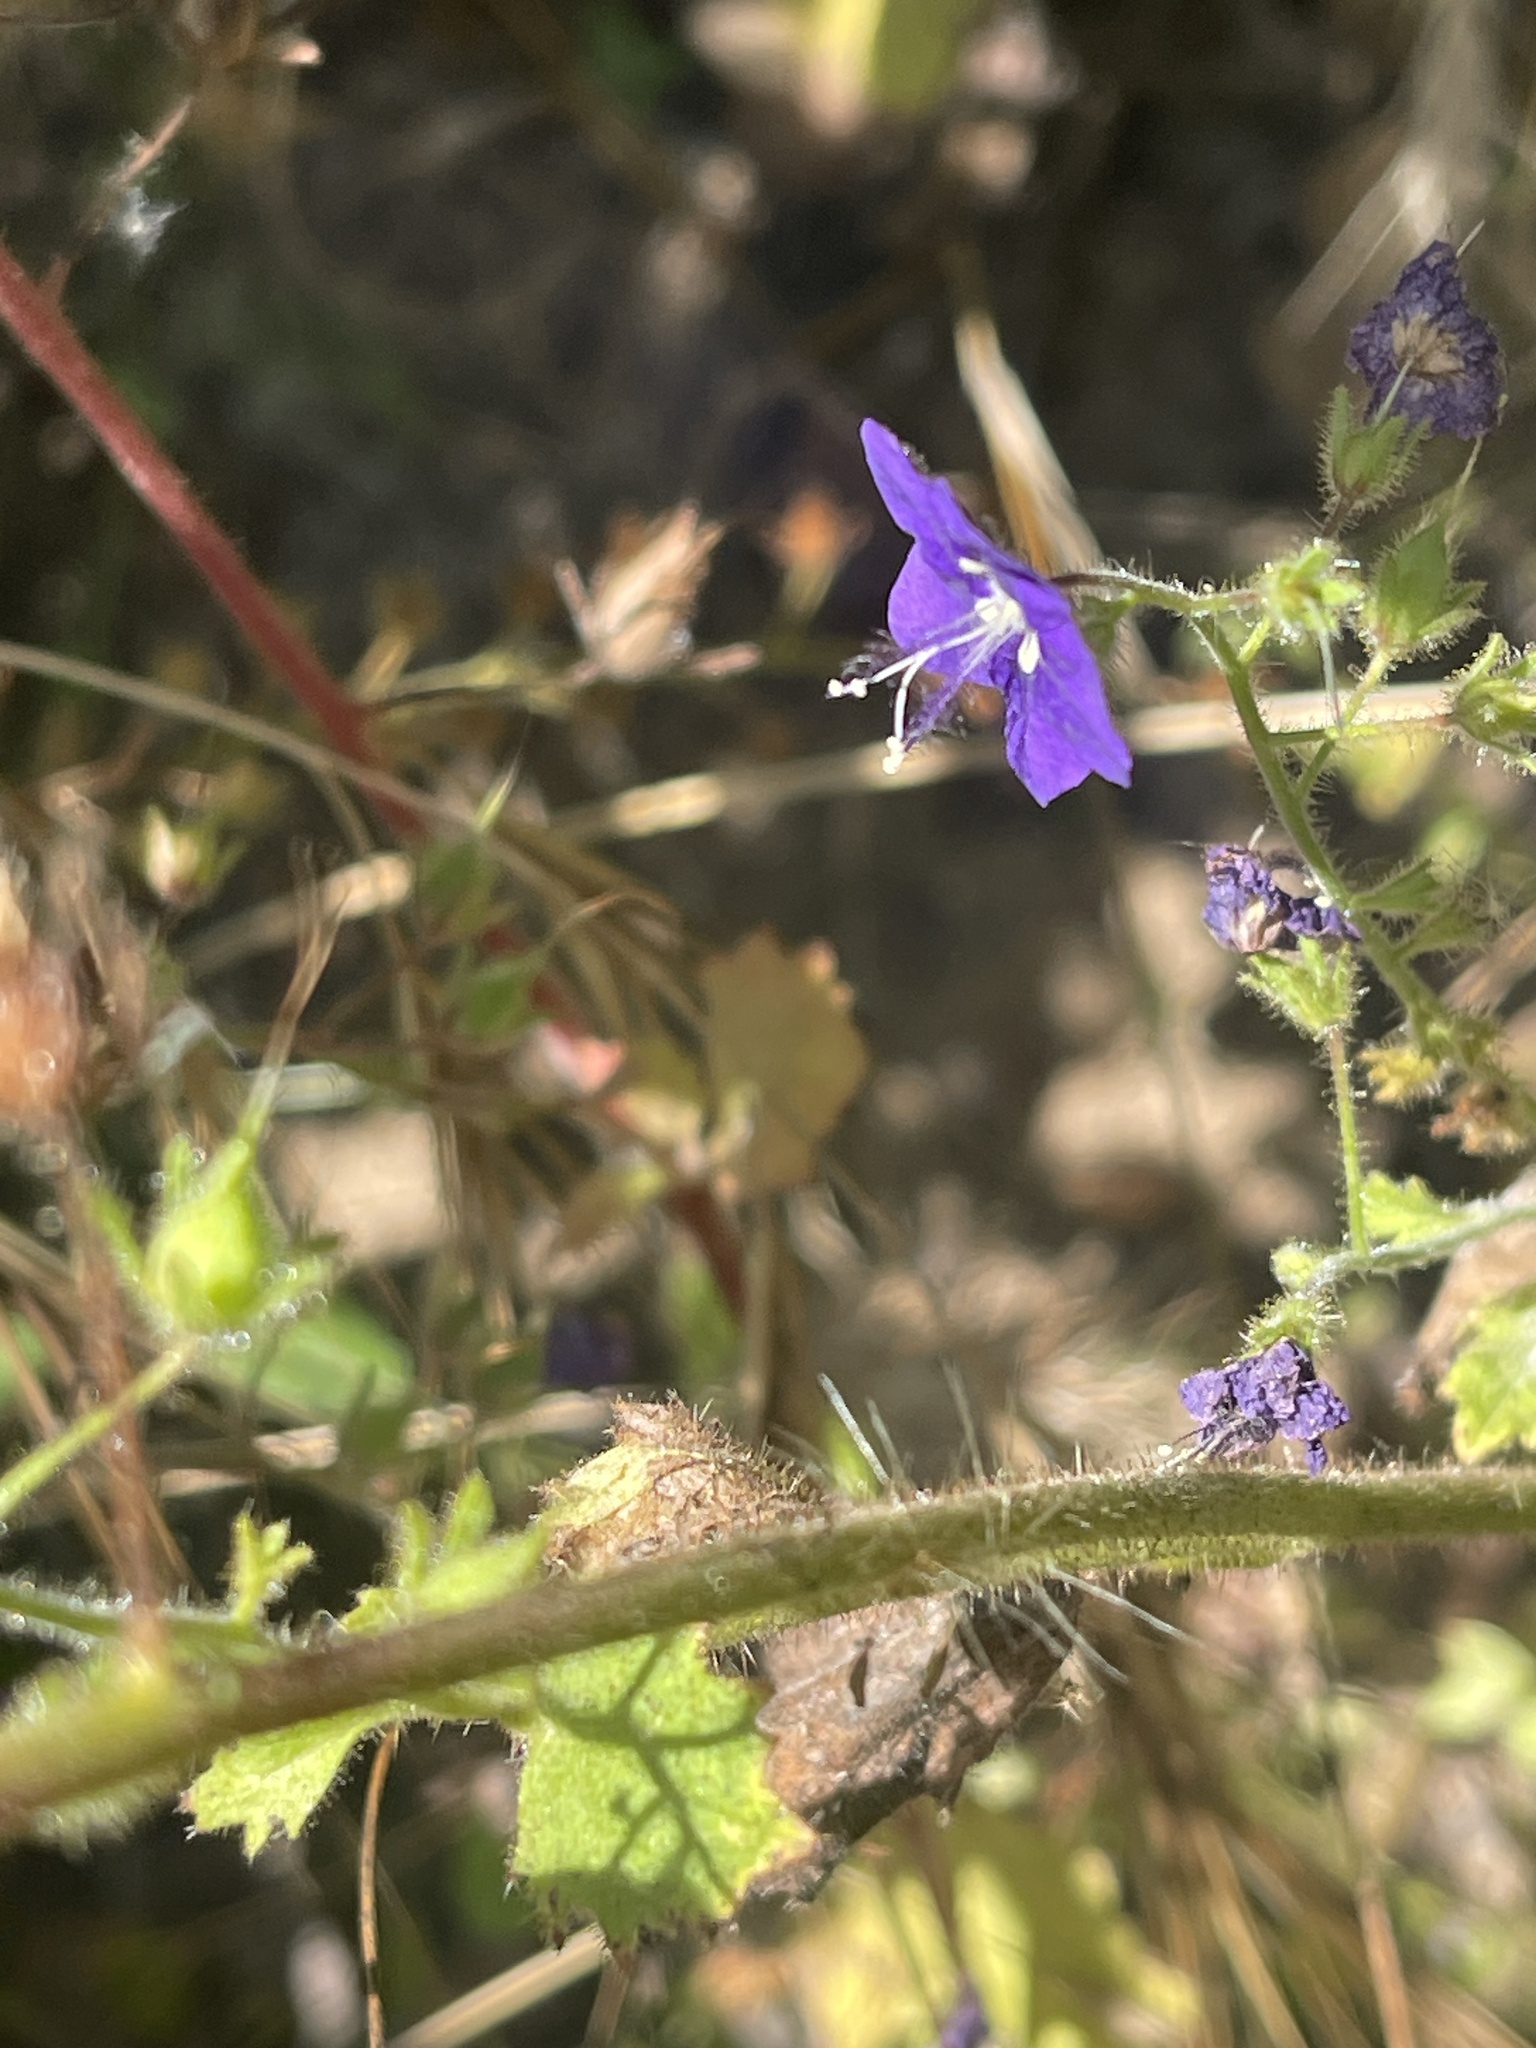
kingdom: Plantae
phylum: Tracheophyta
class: Magnoliopsida
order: Boraginales
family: Hydrophyllaceae
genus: Phacelia
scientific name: Phacelia parryi
